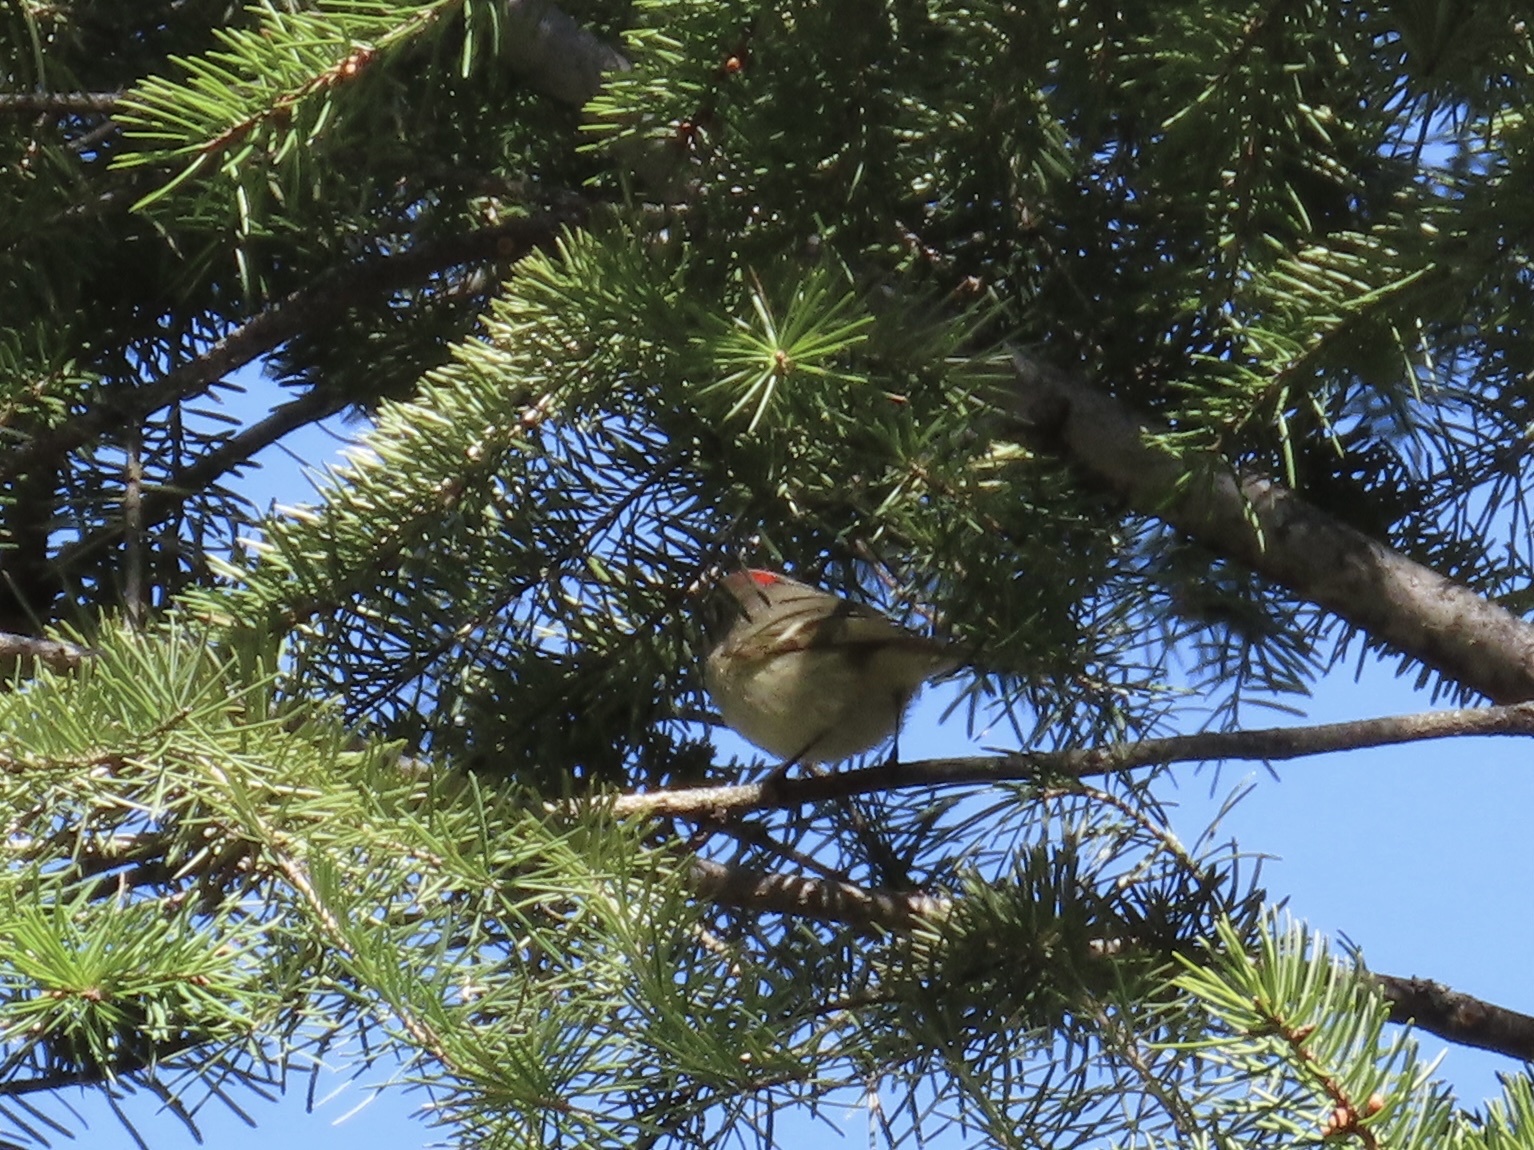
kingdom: Animalia
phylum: Chordata
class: Aves
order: Passeriformes
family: Regulidae
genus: Regulus
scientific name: Regulus calendula
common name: Ruby-crowned kinglet
